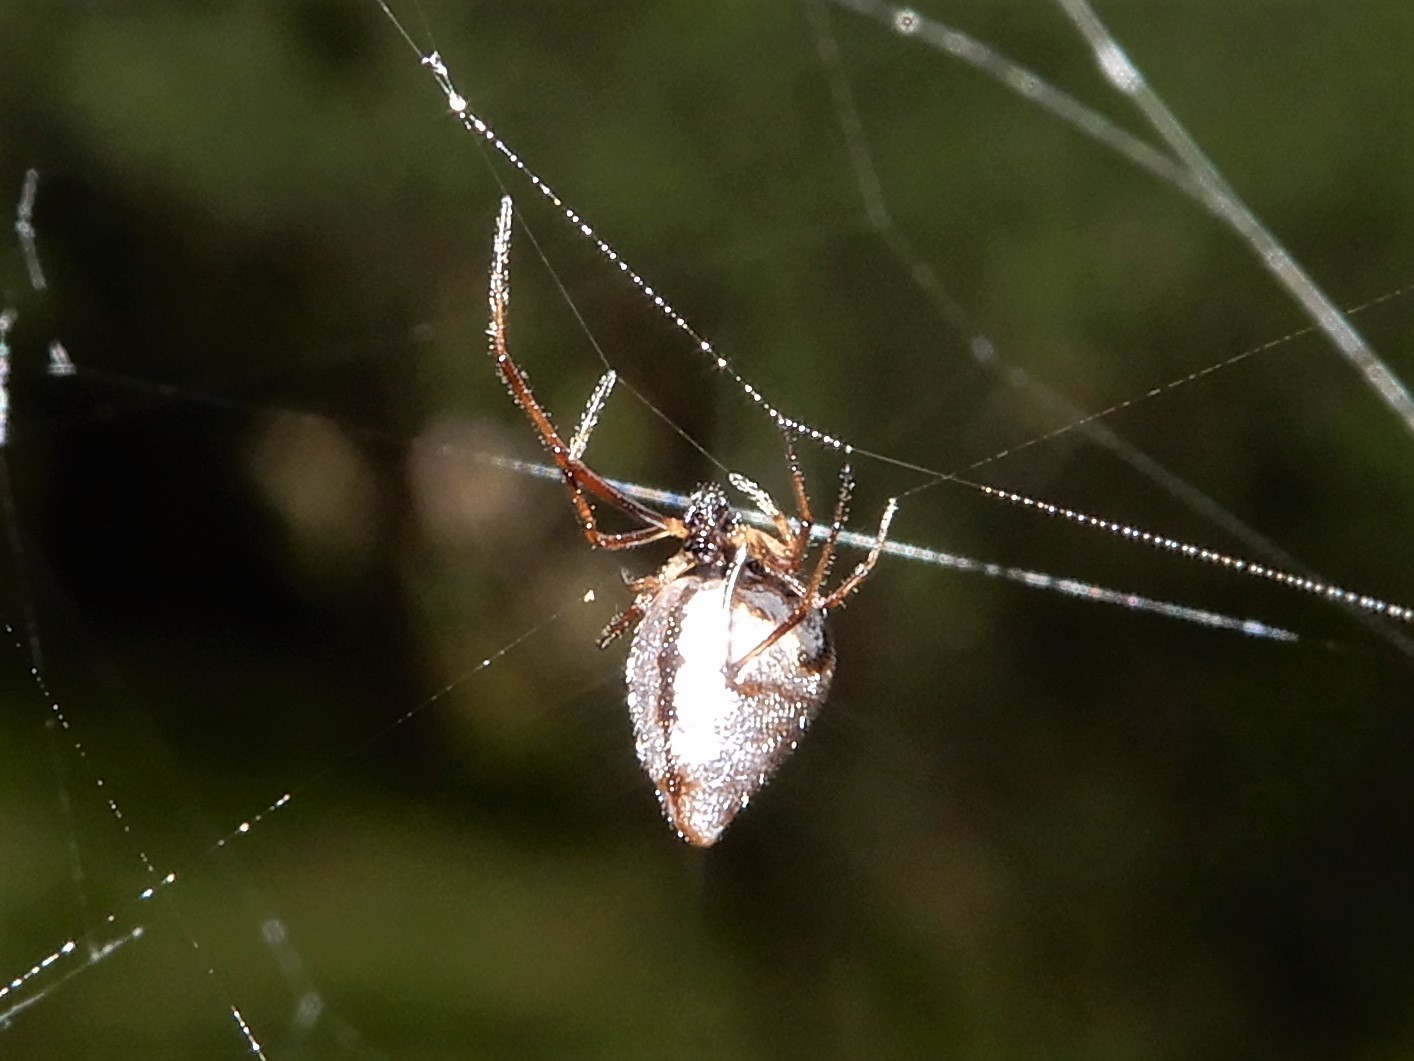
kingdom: Animalia
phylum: Arthropoda
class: Arachnida
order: Araneae
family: Theridiidae
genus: Argyrodes
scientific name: Argyrodes antipodianus
